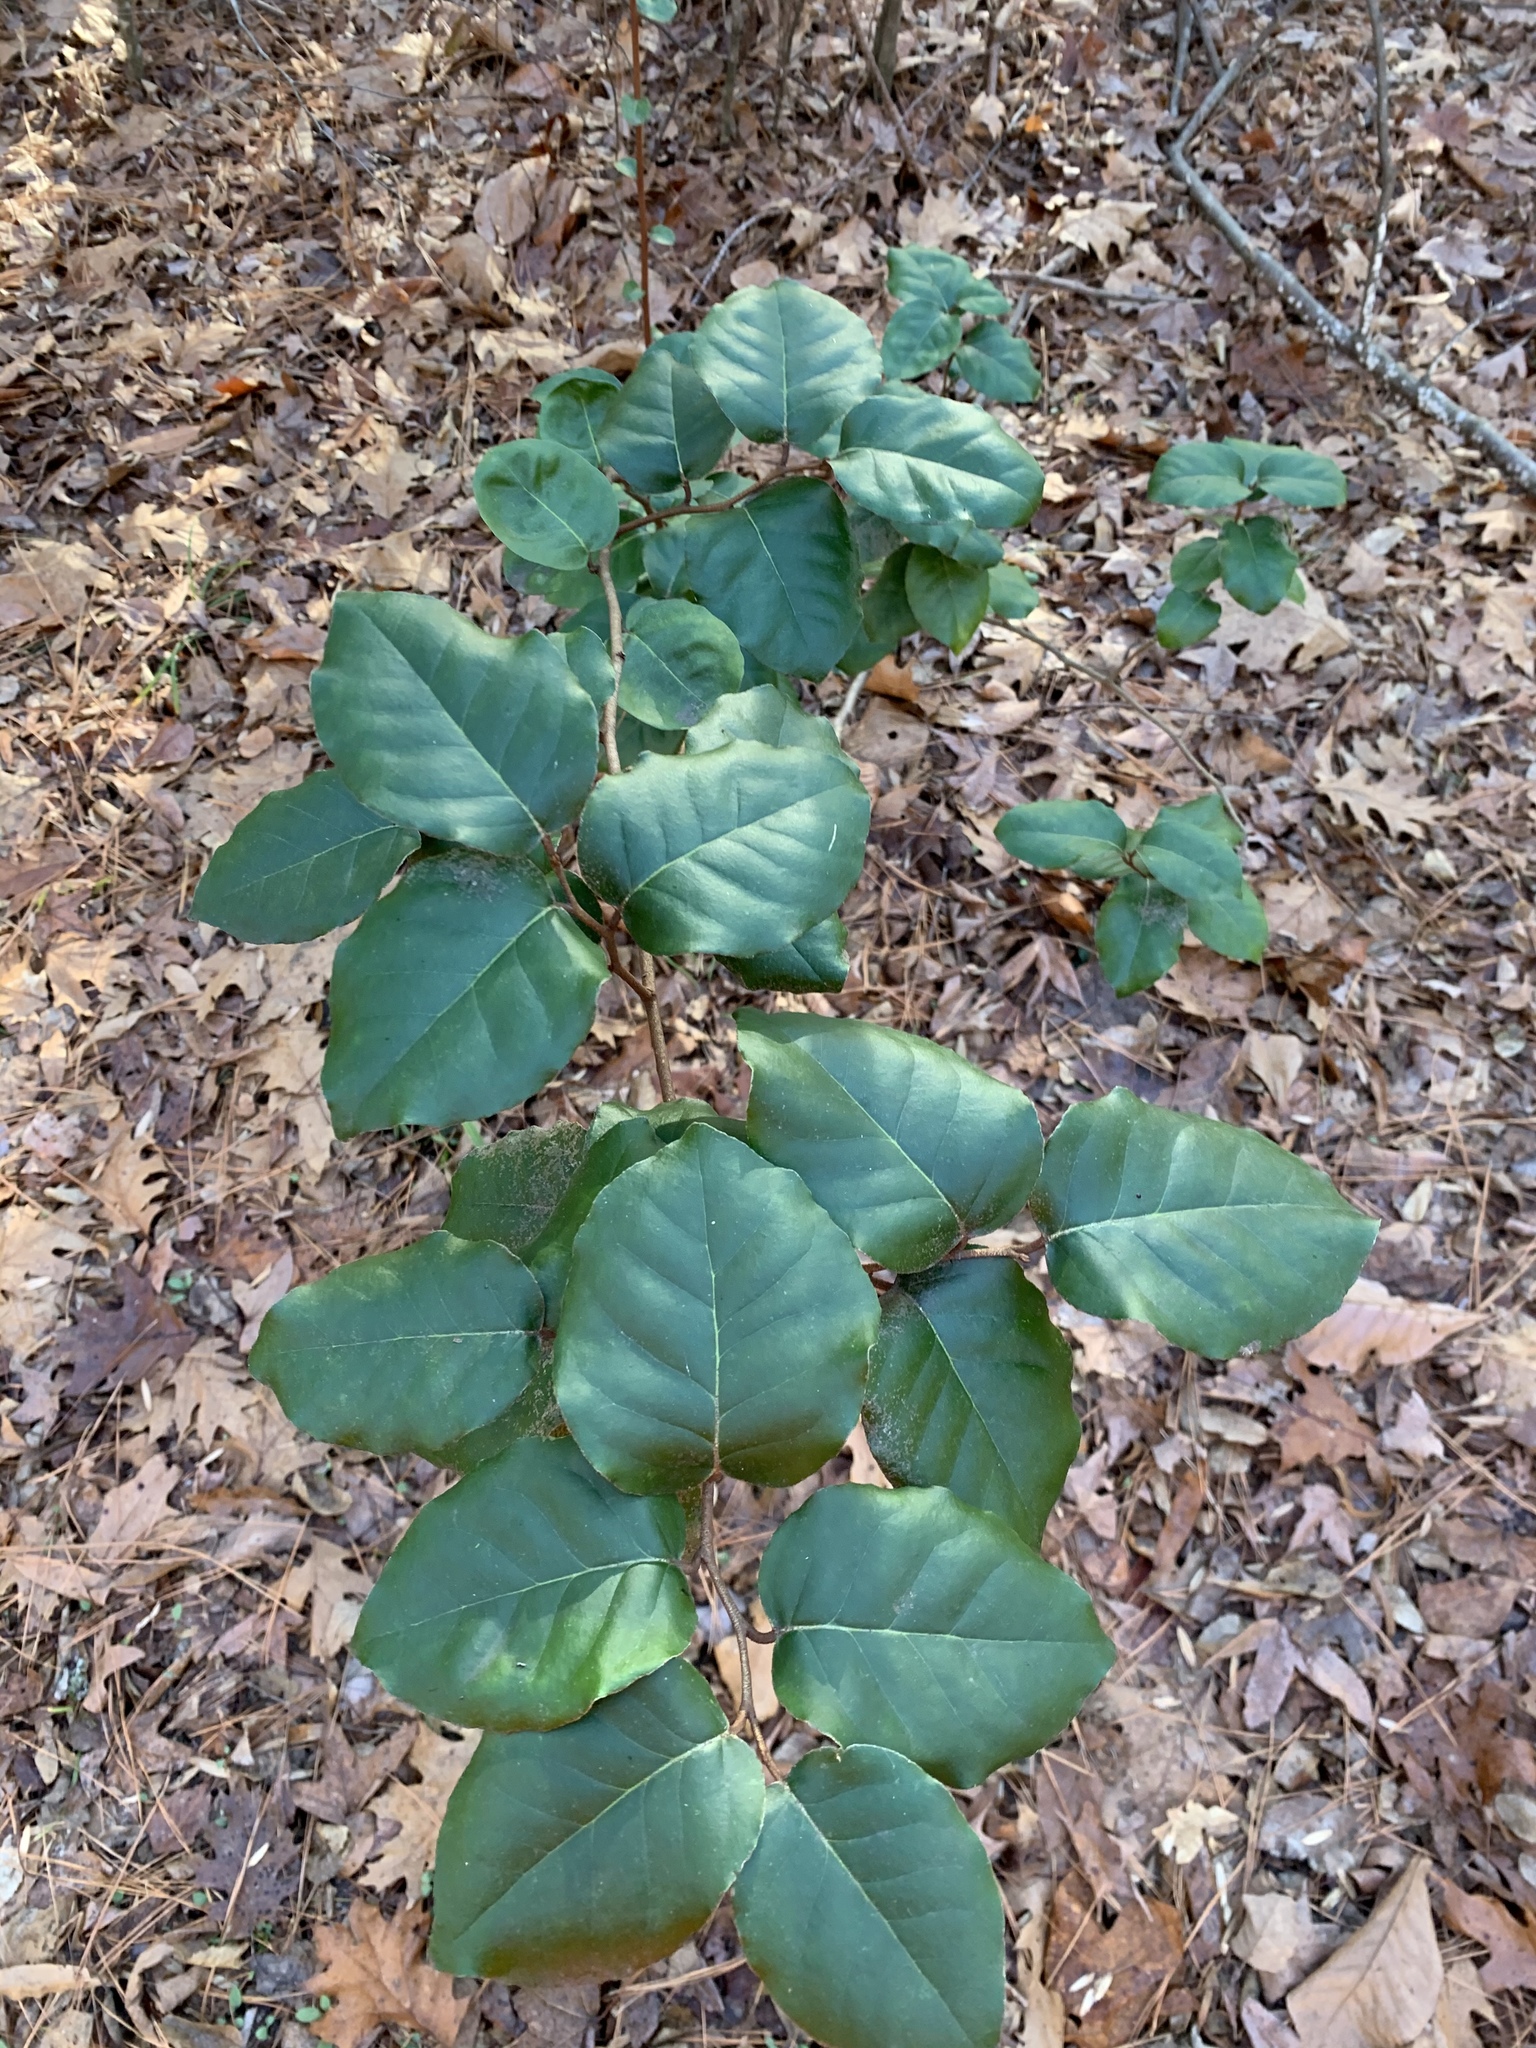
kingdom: Plantae
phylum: Tracheophyta
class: Magnoliopsida
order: Rosales
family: Elaeagnaceae
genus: Elaeagnus
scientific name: Elaeagnus pungens
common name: Spiny oleaster
